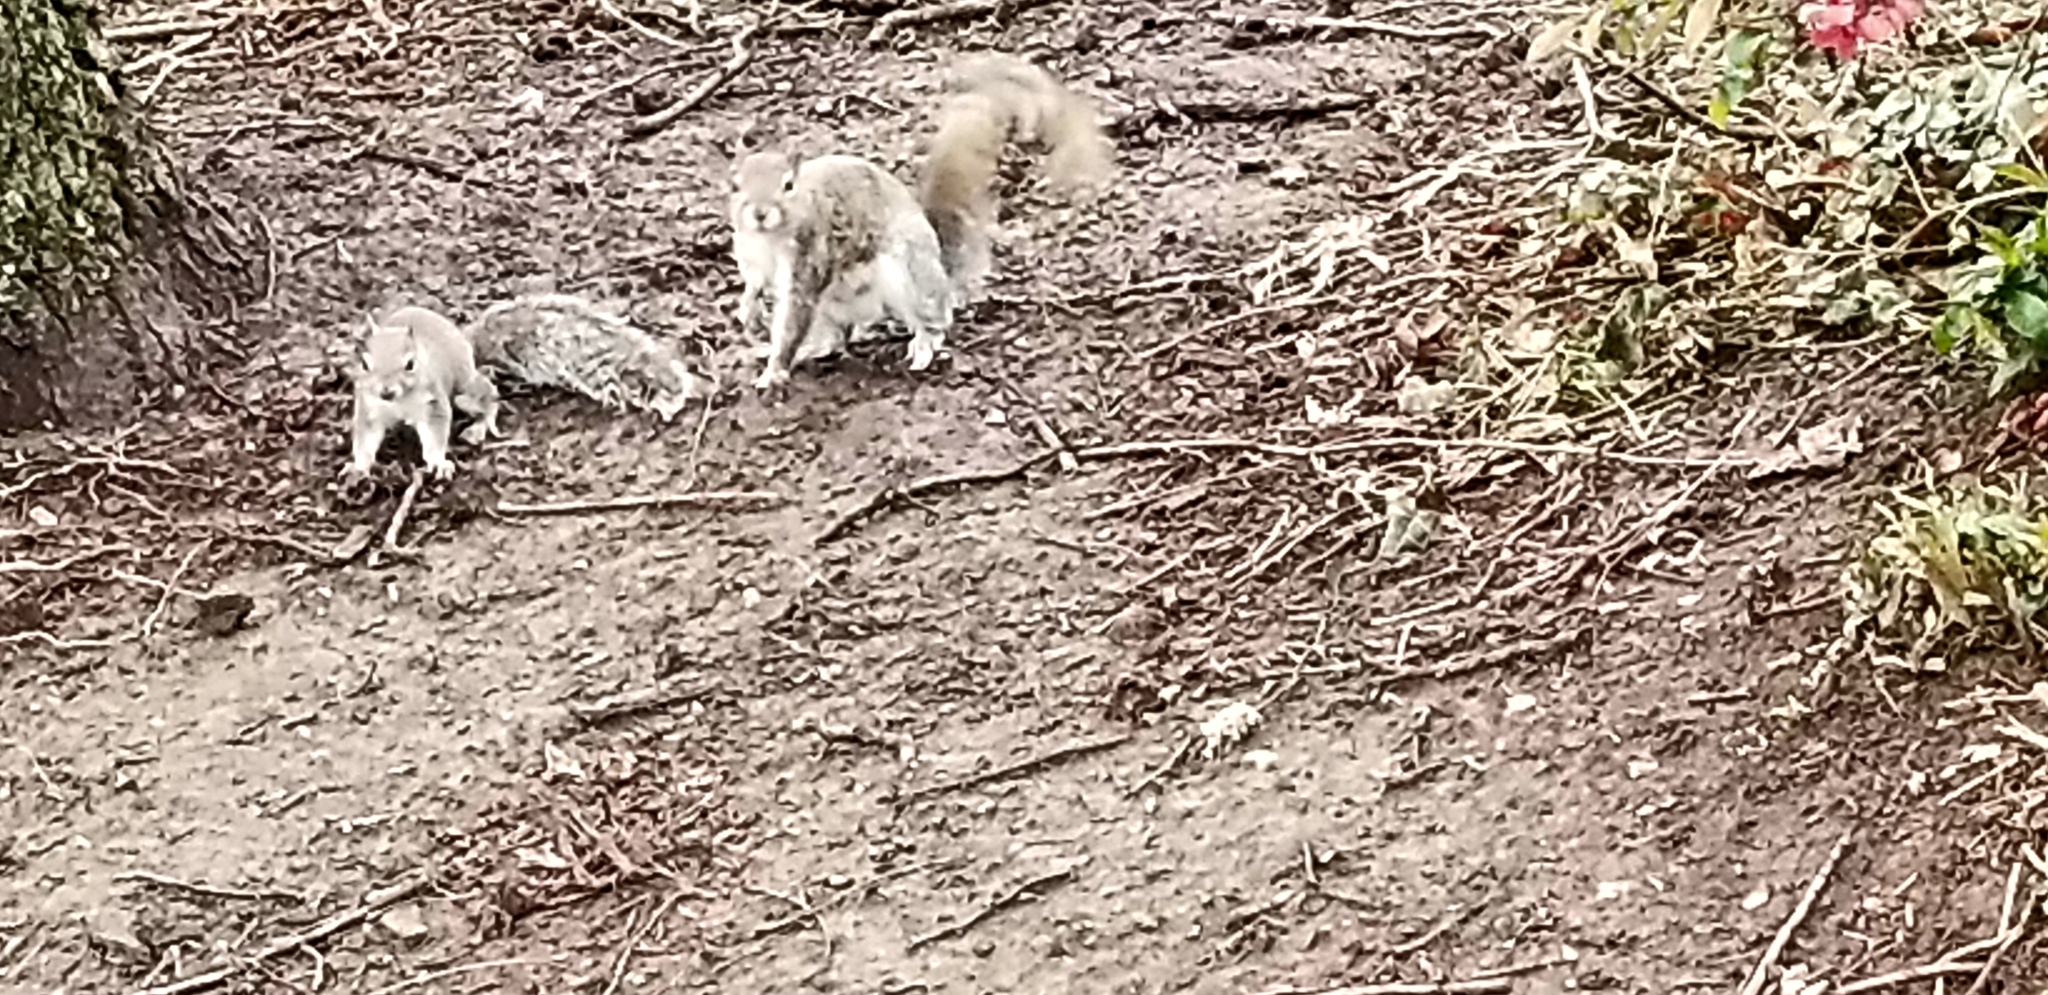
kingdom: Animalia
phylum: Chordata
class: Mammalia
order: Rodentia
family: Sciuridae
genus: Sciurus
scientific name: Sciurus carolinensis
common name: Eastern gray squirrel
